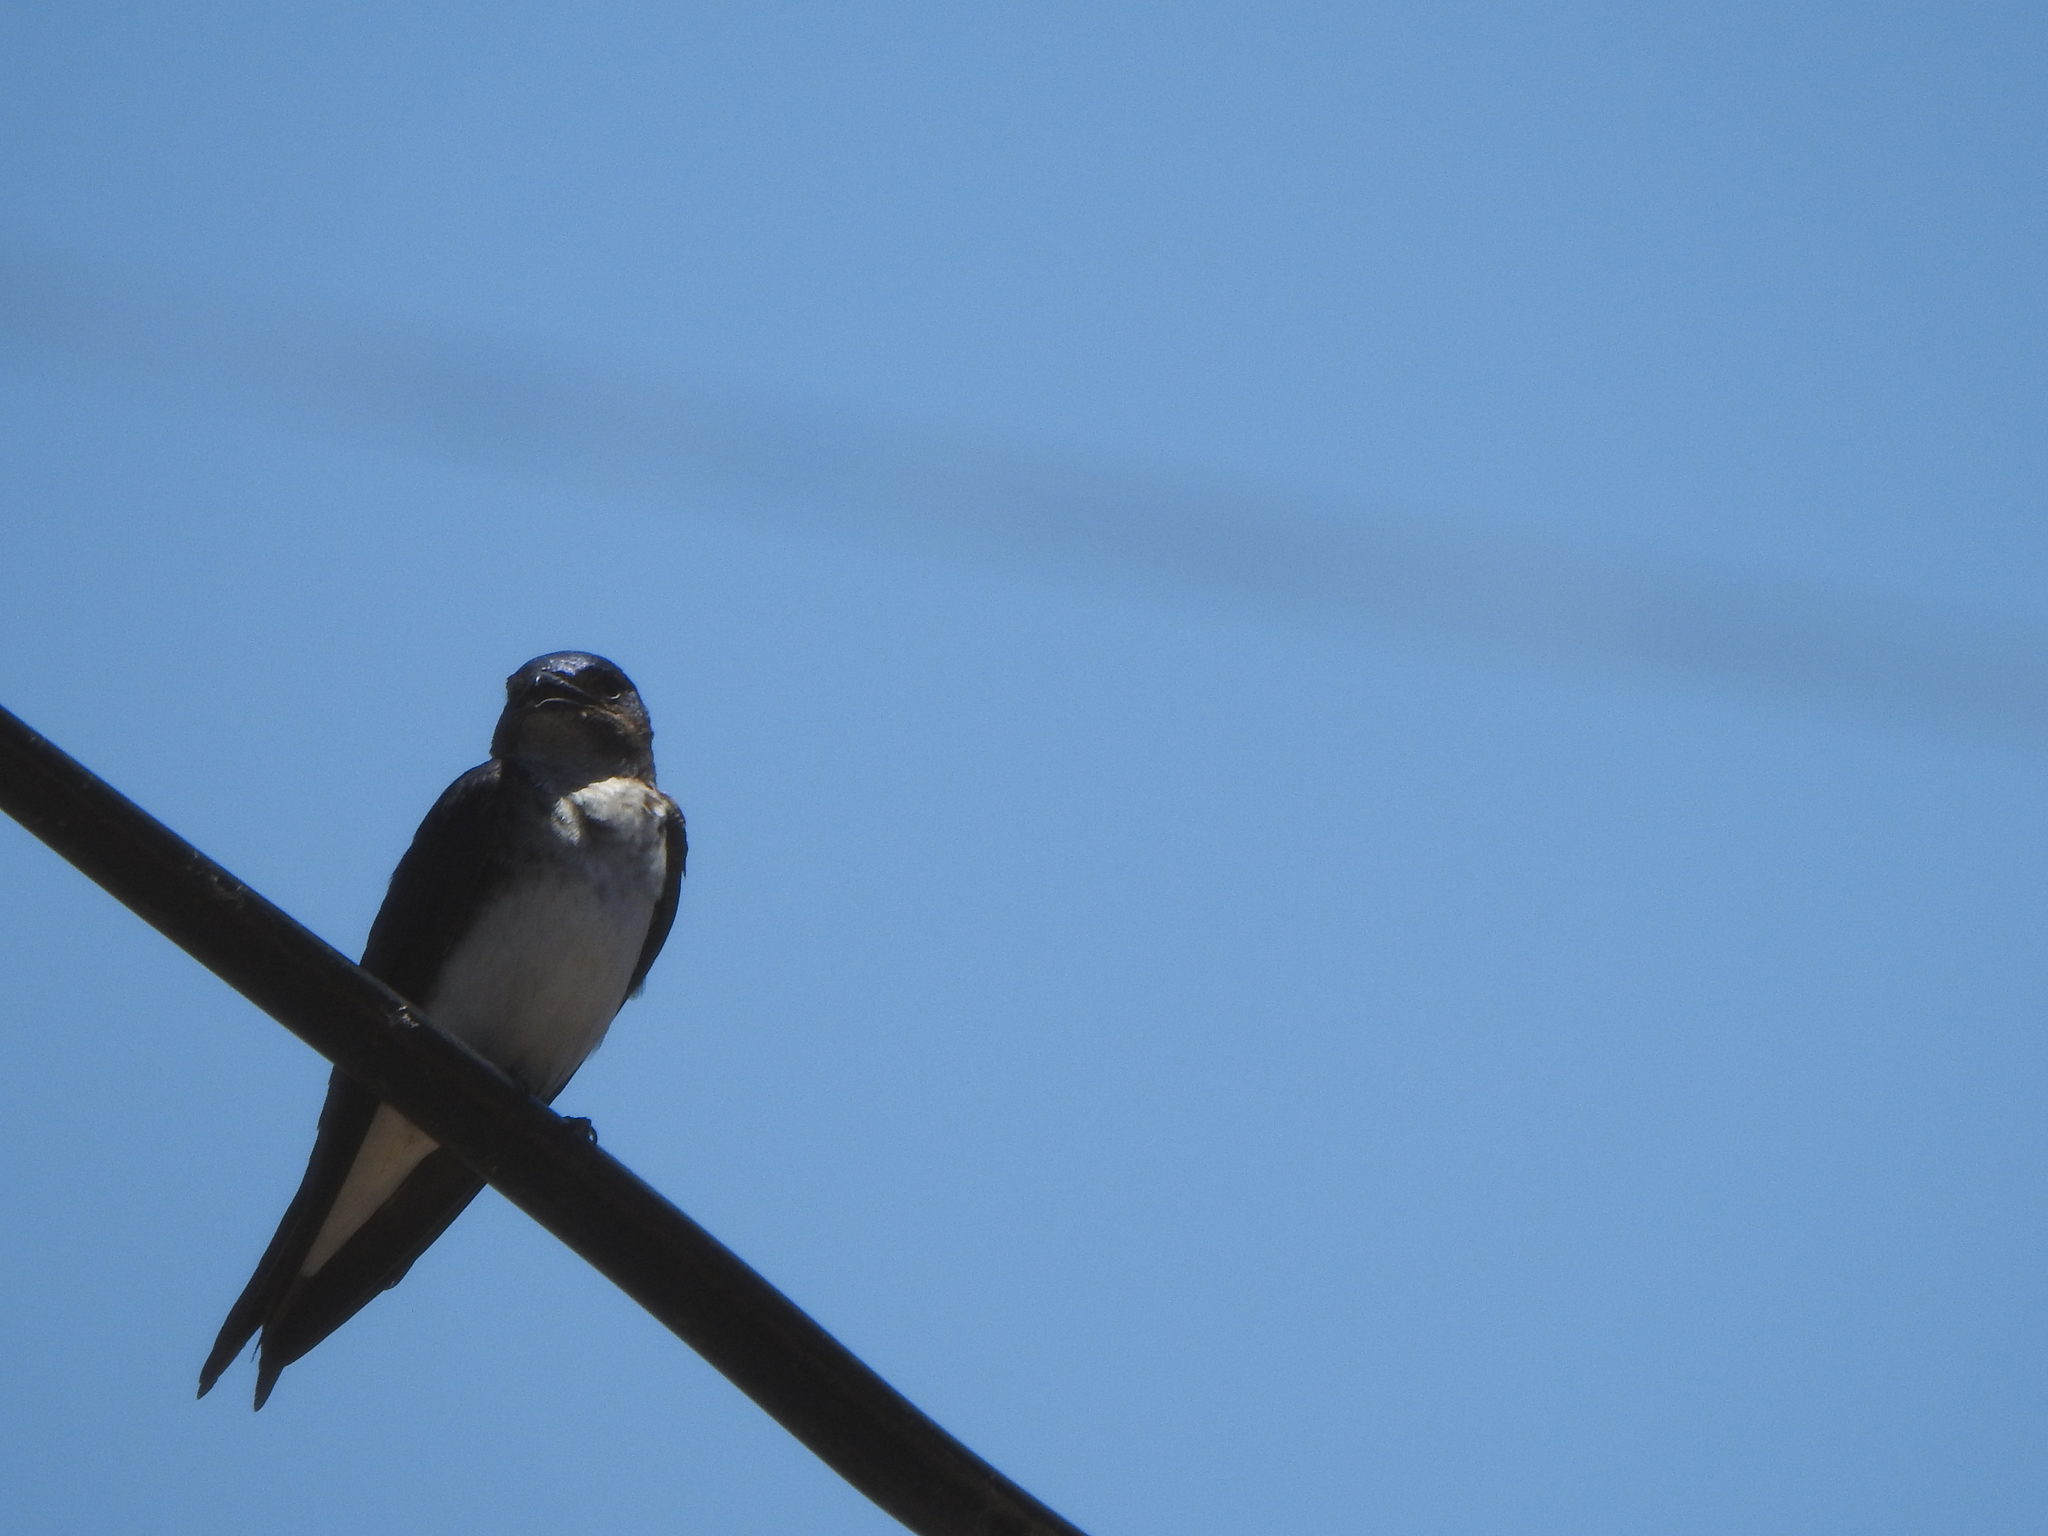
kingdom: Animalia
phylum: Chordata
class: Aves
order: Passeriformes
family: Hirundinidae
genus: Progne
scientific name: Progne chalybea
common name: Grey-breasted martin
